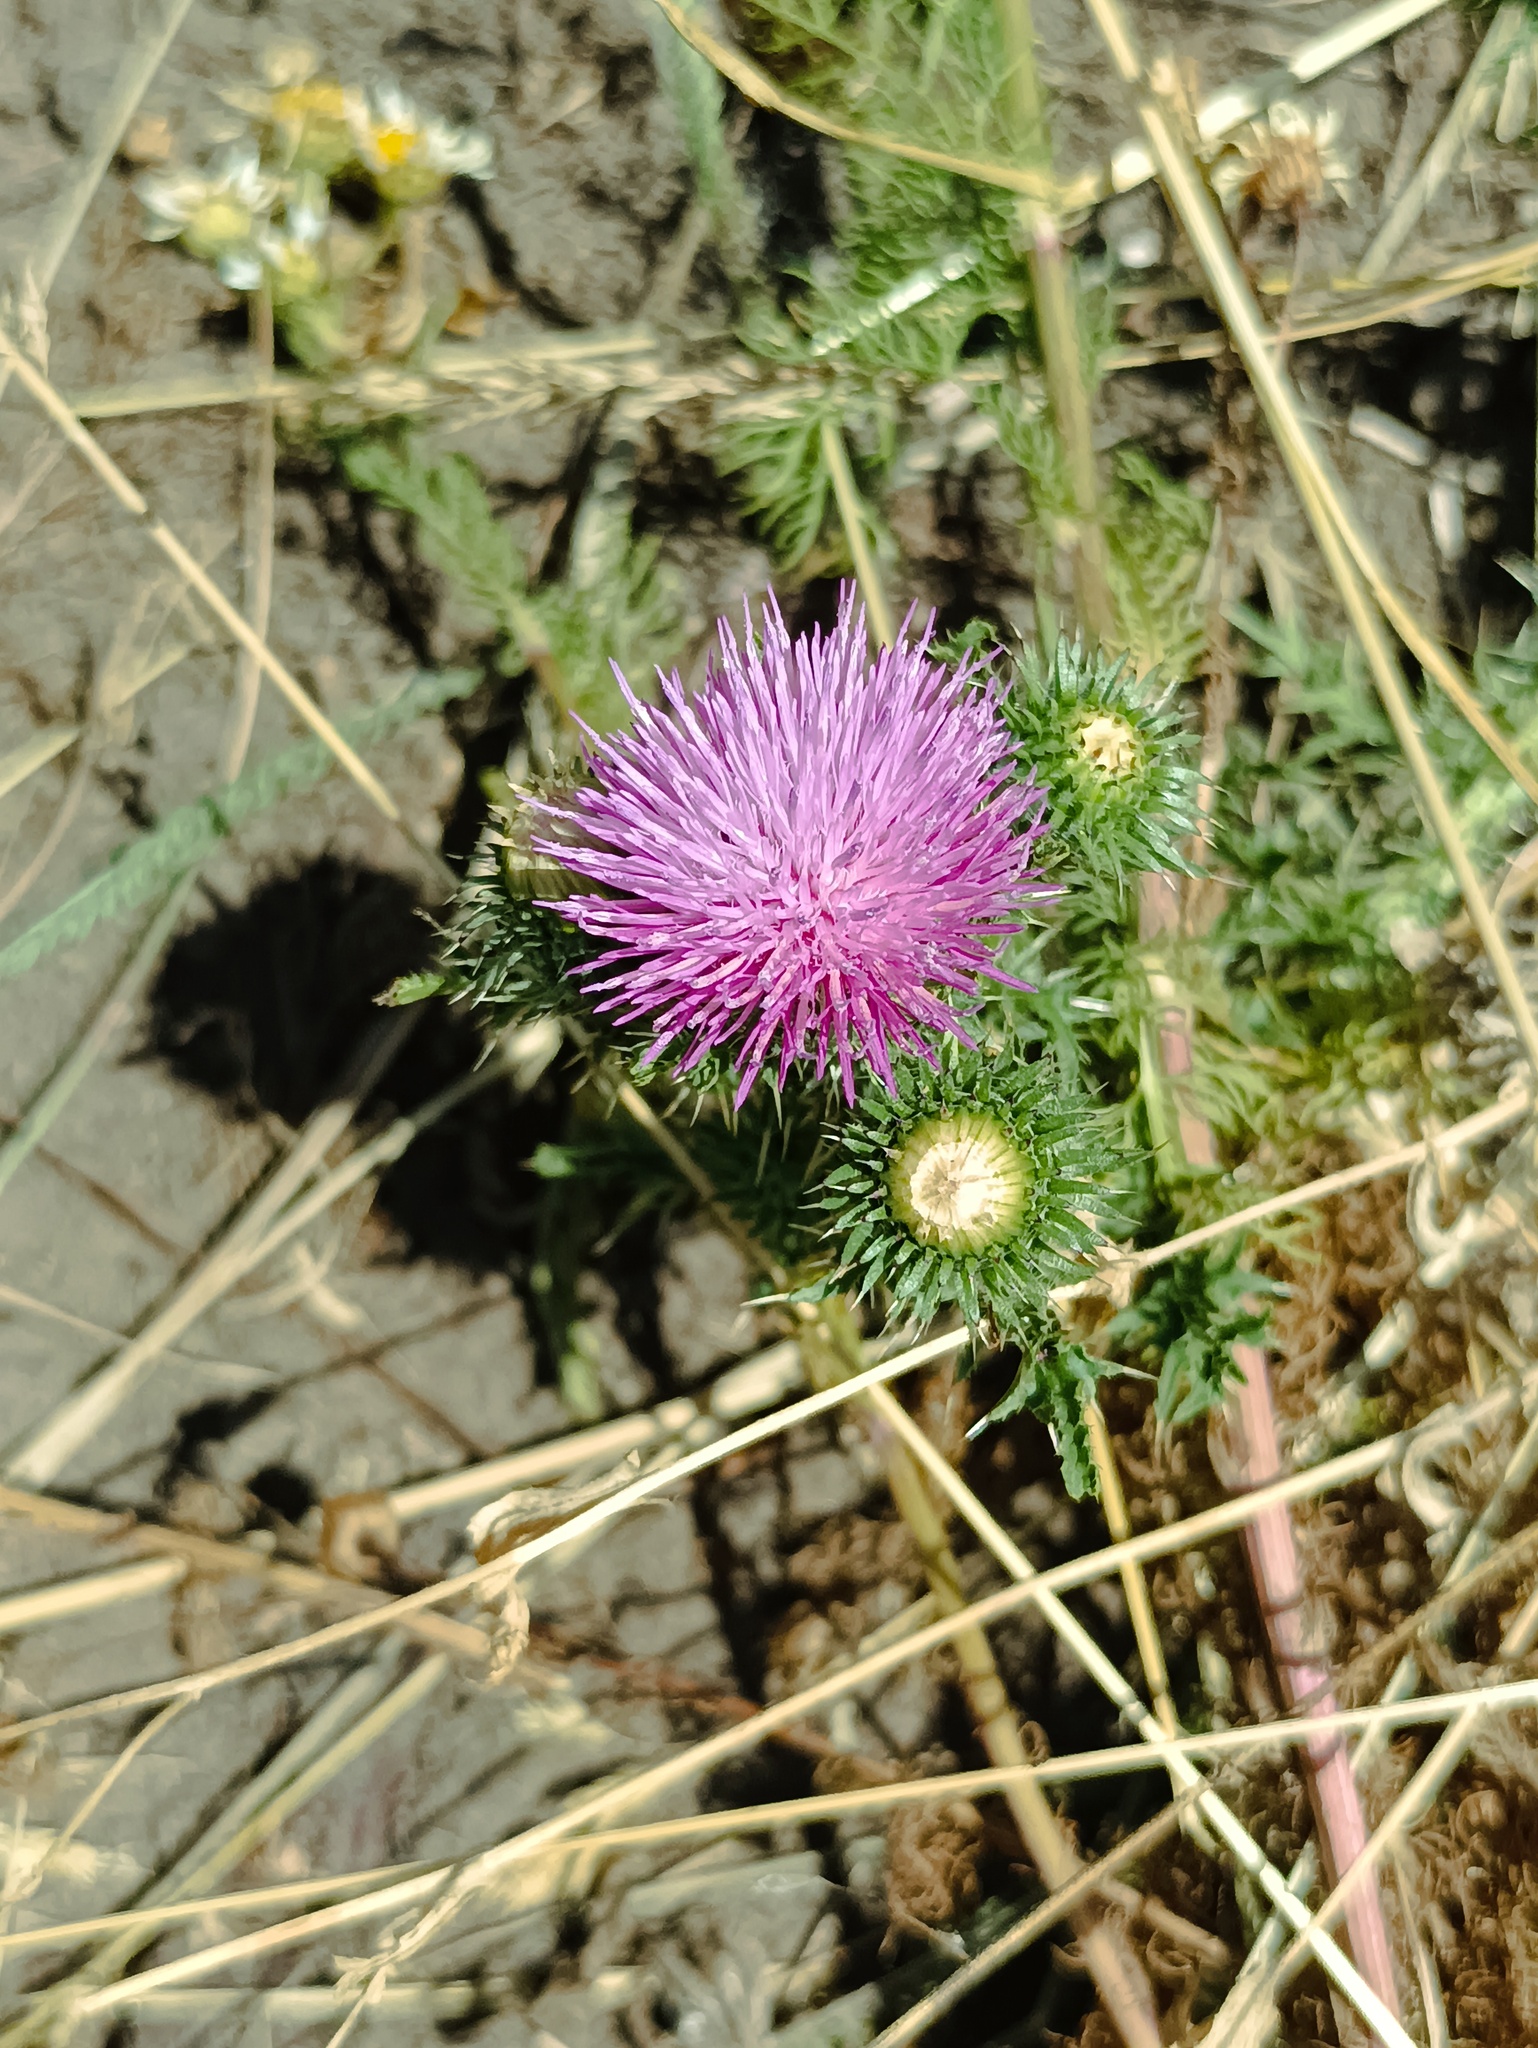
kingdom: Plantae
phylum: Tracheophyta
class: Magnoliopsida
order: Asterales
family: Asteraceae
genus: Carduus
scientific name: Carduus acanthoides
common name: Plumeless thistle
